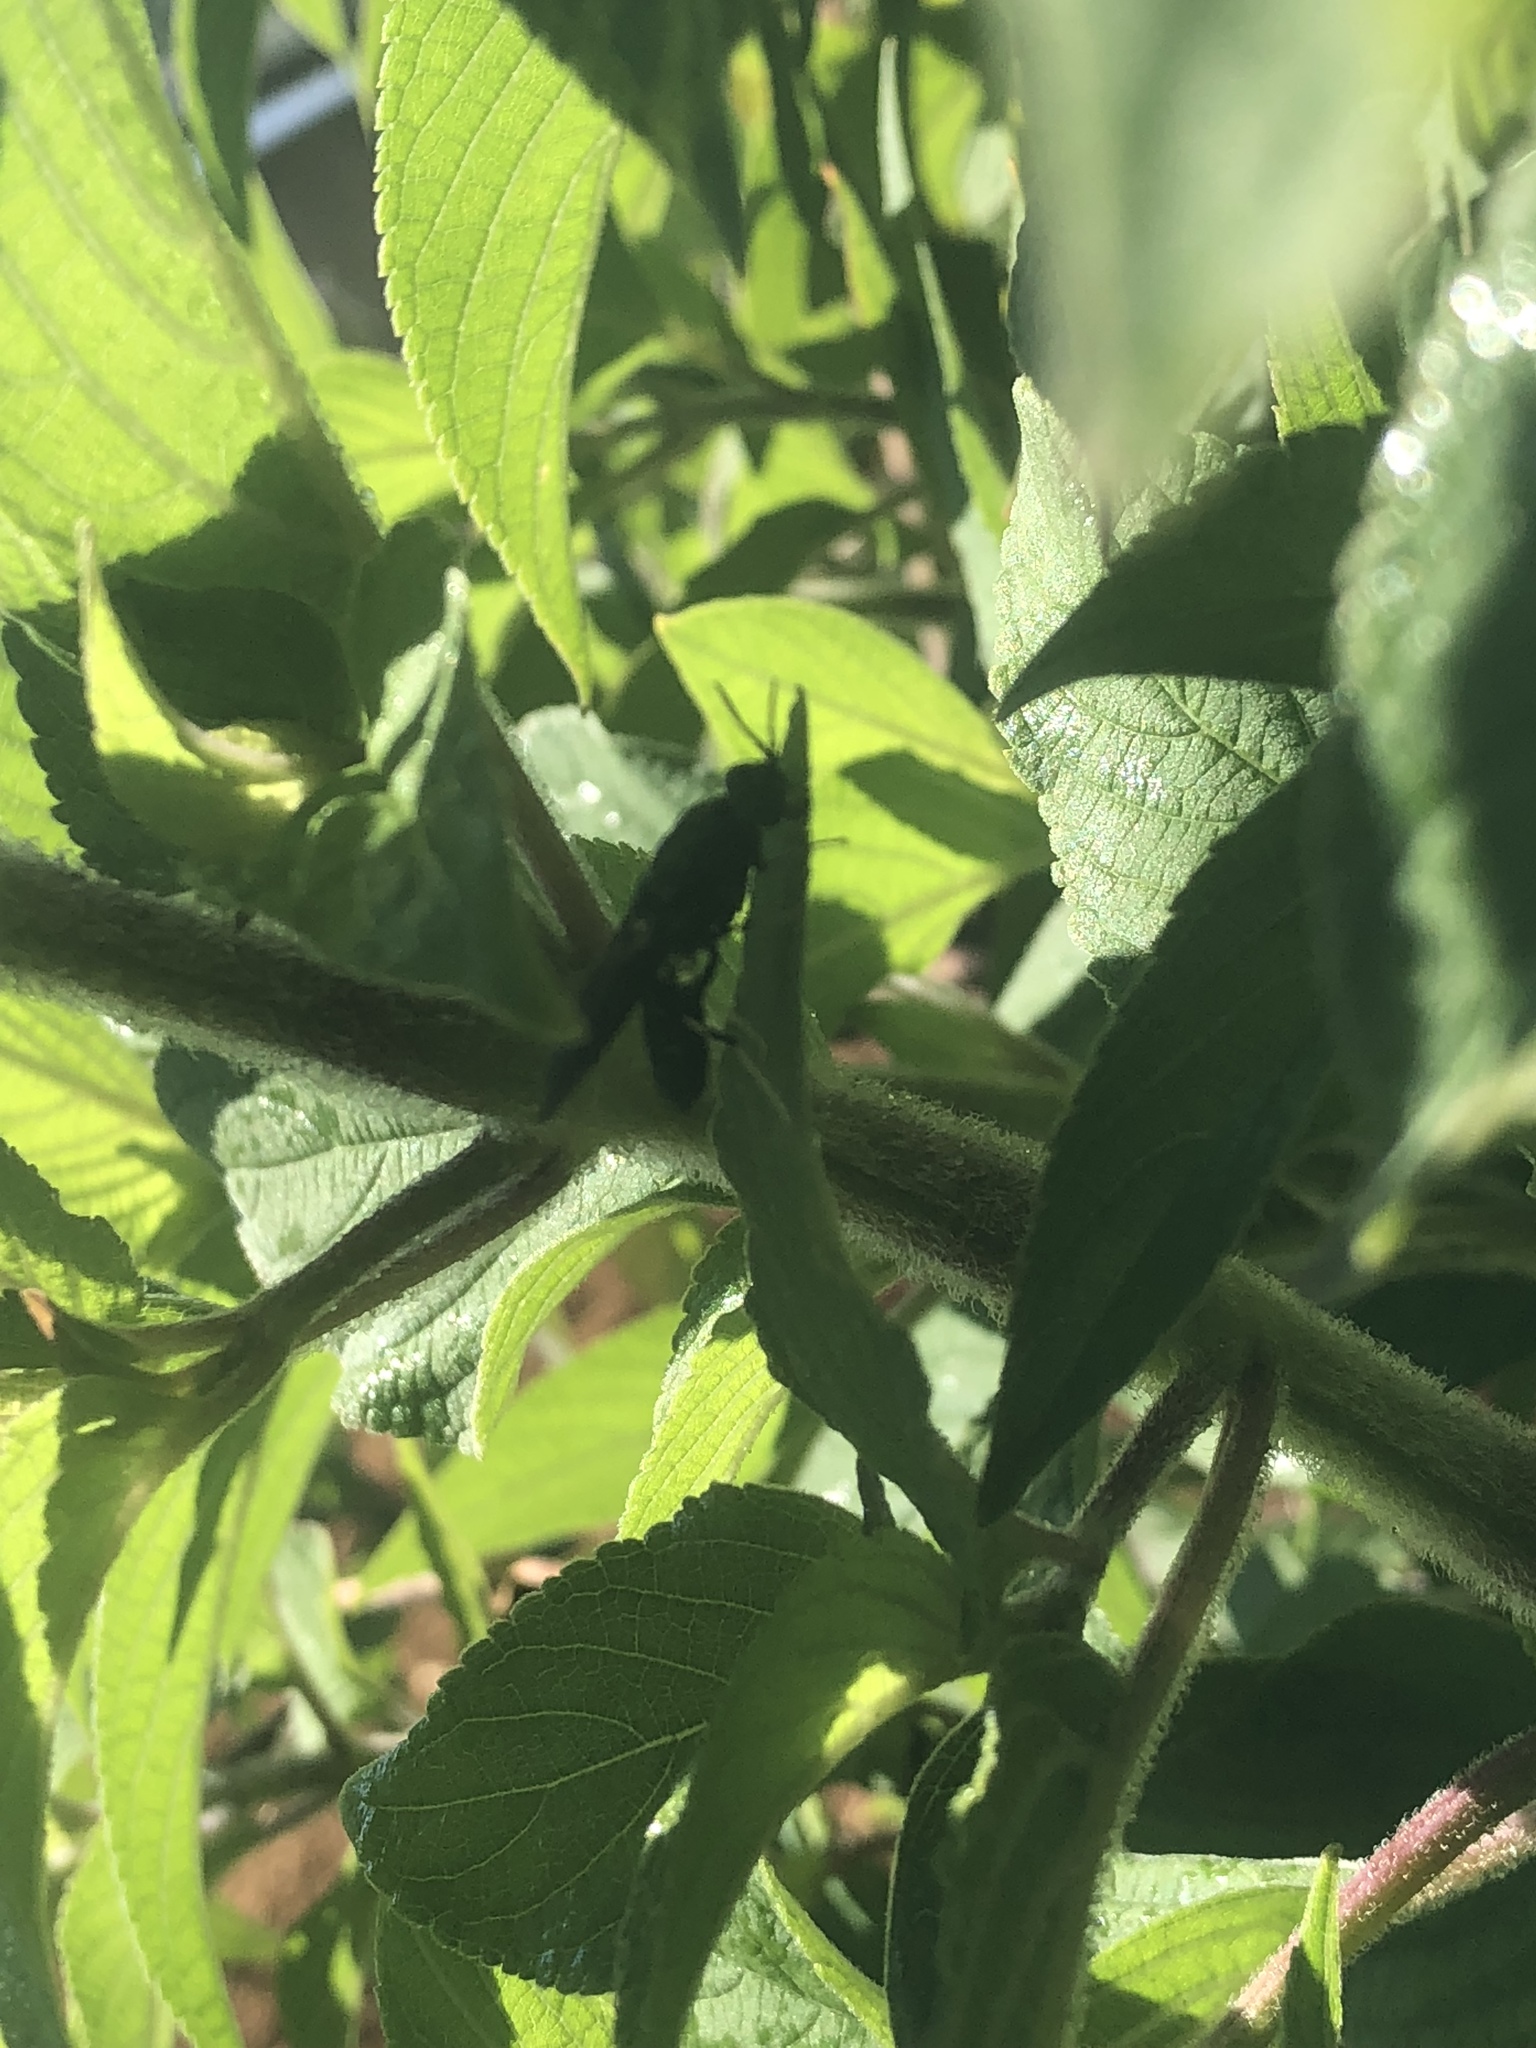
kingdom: Animalia
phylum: Arthropoda
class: Insecta
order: Diptera
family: Stratiomyidae
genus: Hermetia
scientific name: Hermetia illucens
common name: Black soldier fly
